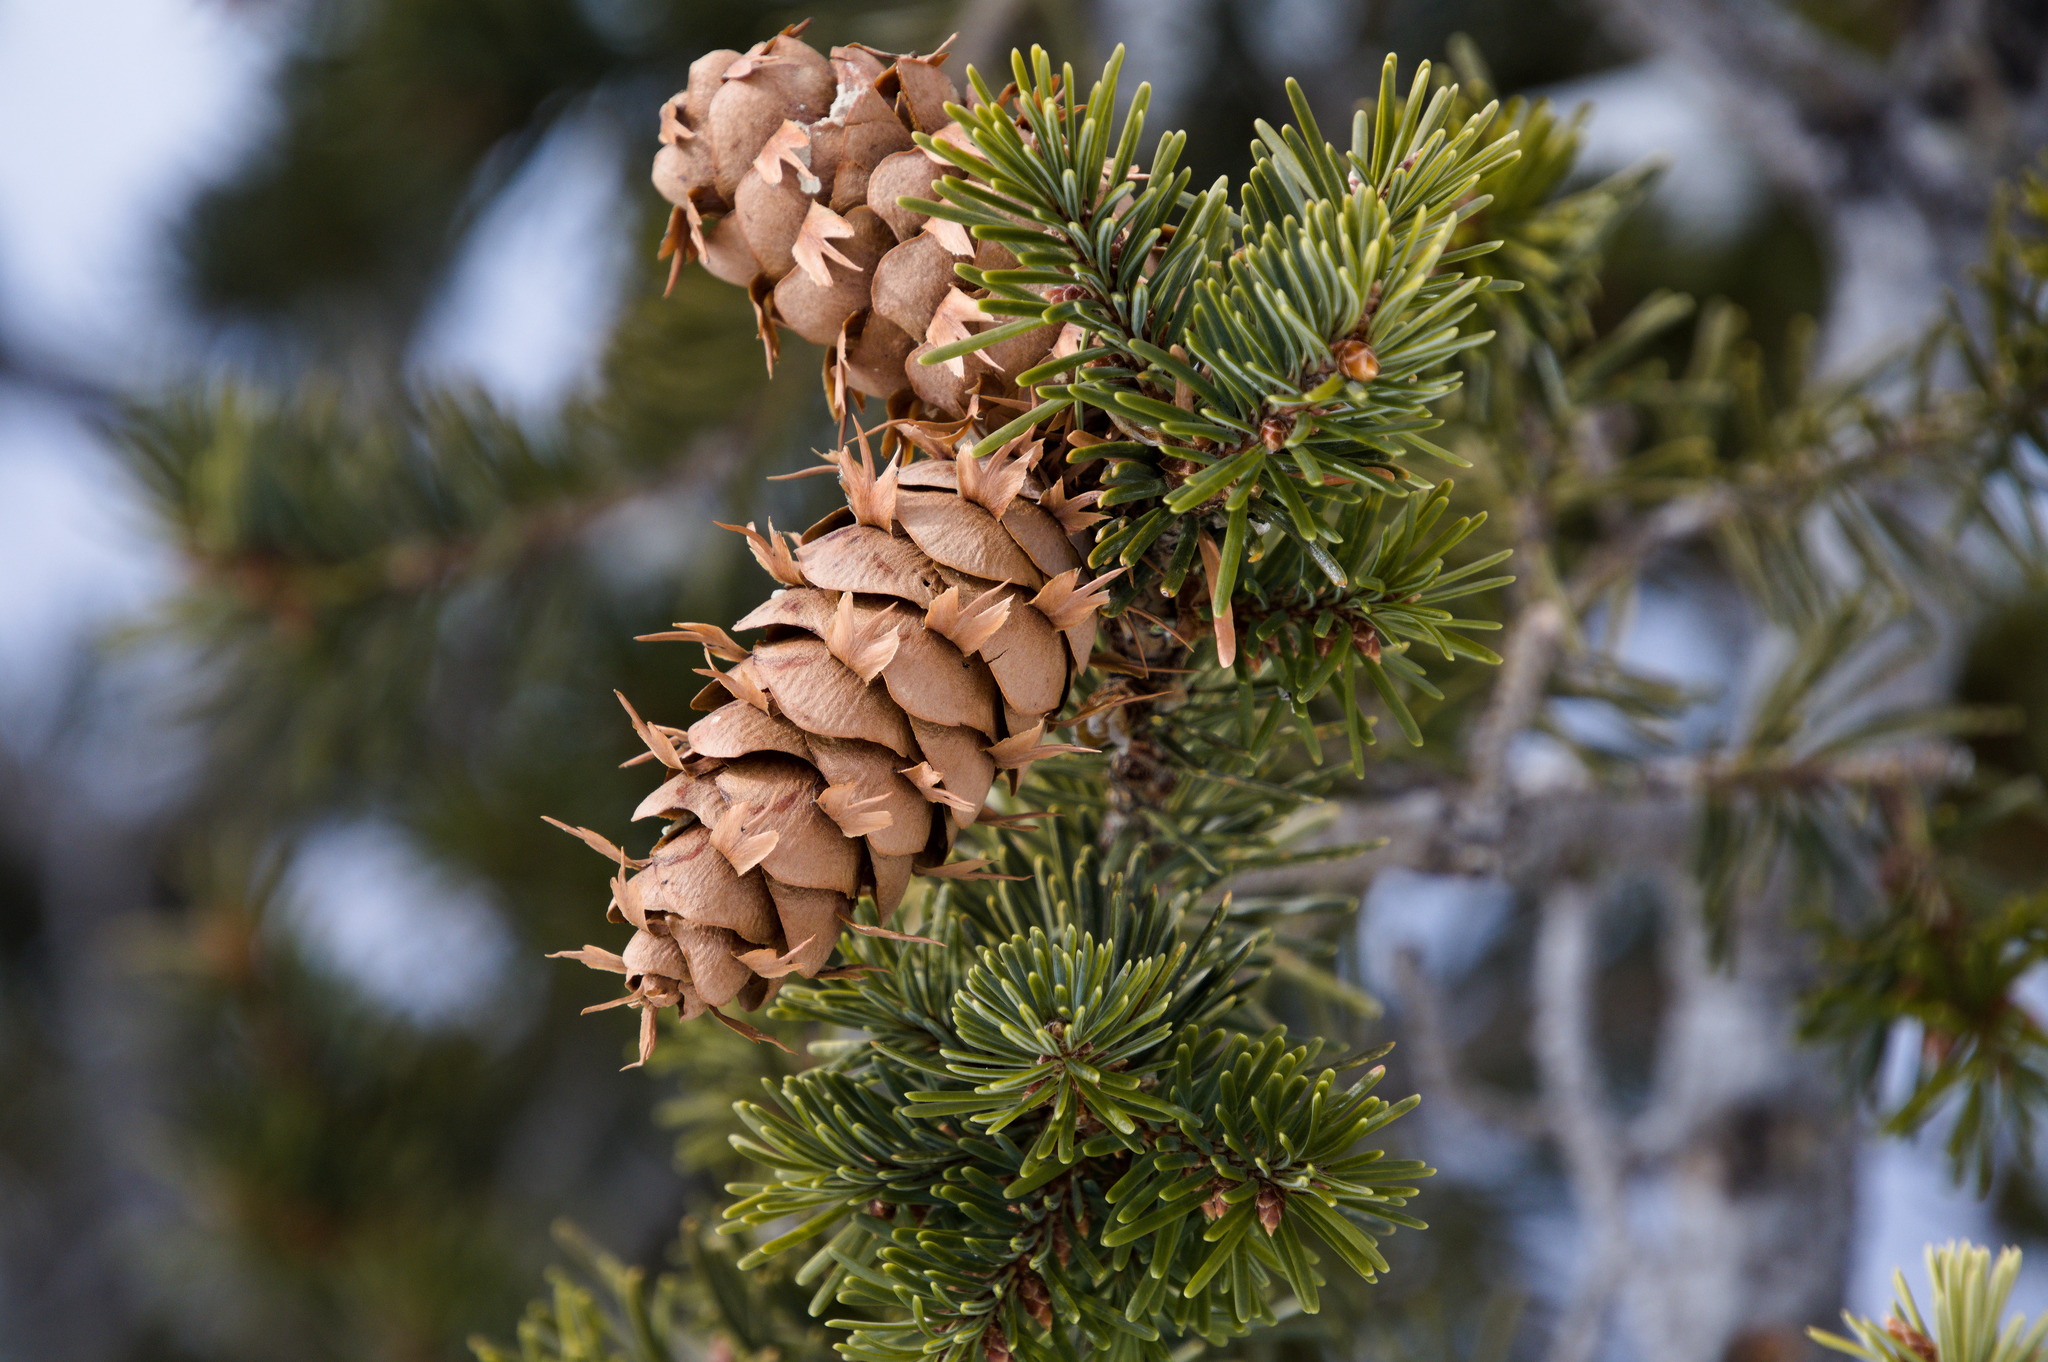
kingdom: Plantae
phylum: Tracheophyta
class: Pinopsida
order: Pinales
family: Pinaceae
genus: Pseudotsuga
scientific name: Pseudotsuga menziesii
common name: Douglas fir
